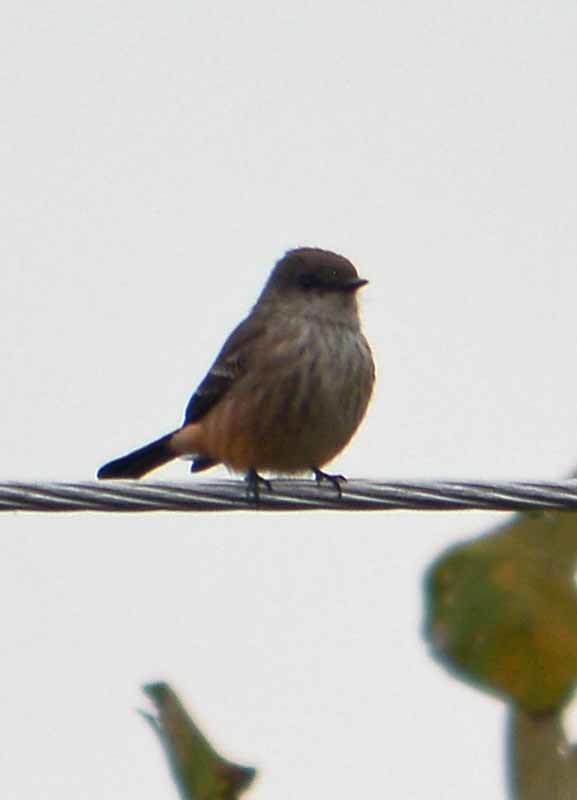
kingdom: Animalia
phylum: Chordata
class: Aves
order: Passeriformes
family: Tyrannidae
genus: Pyrocephalus
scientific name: Pyrocephalus rubinus
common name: Vermilion flycatcher
